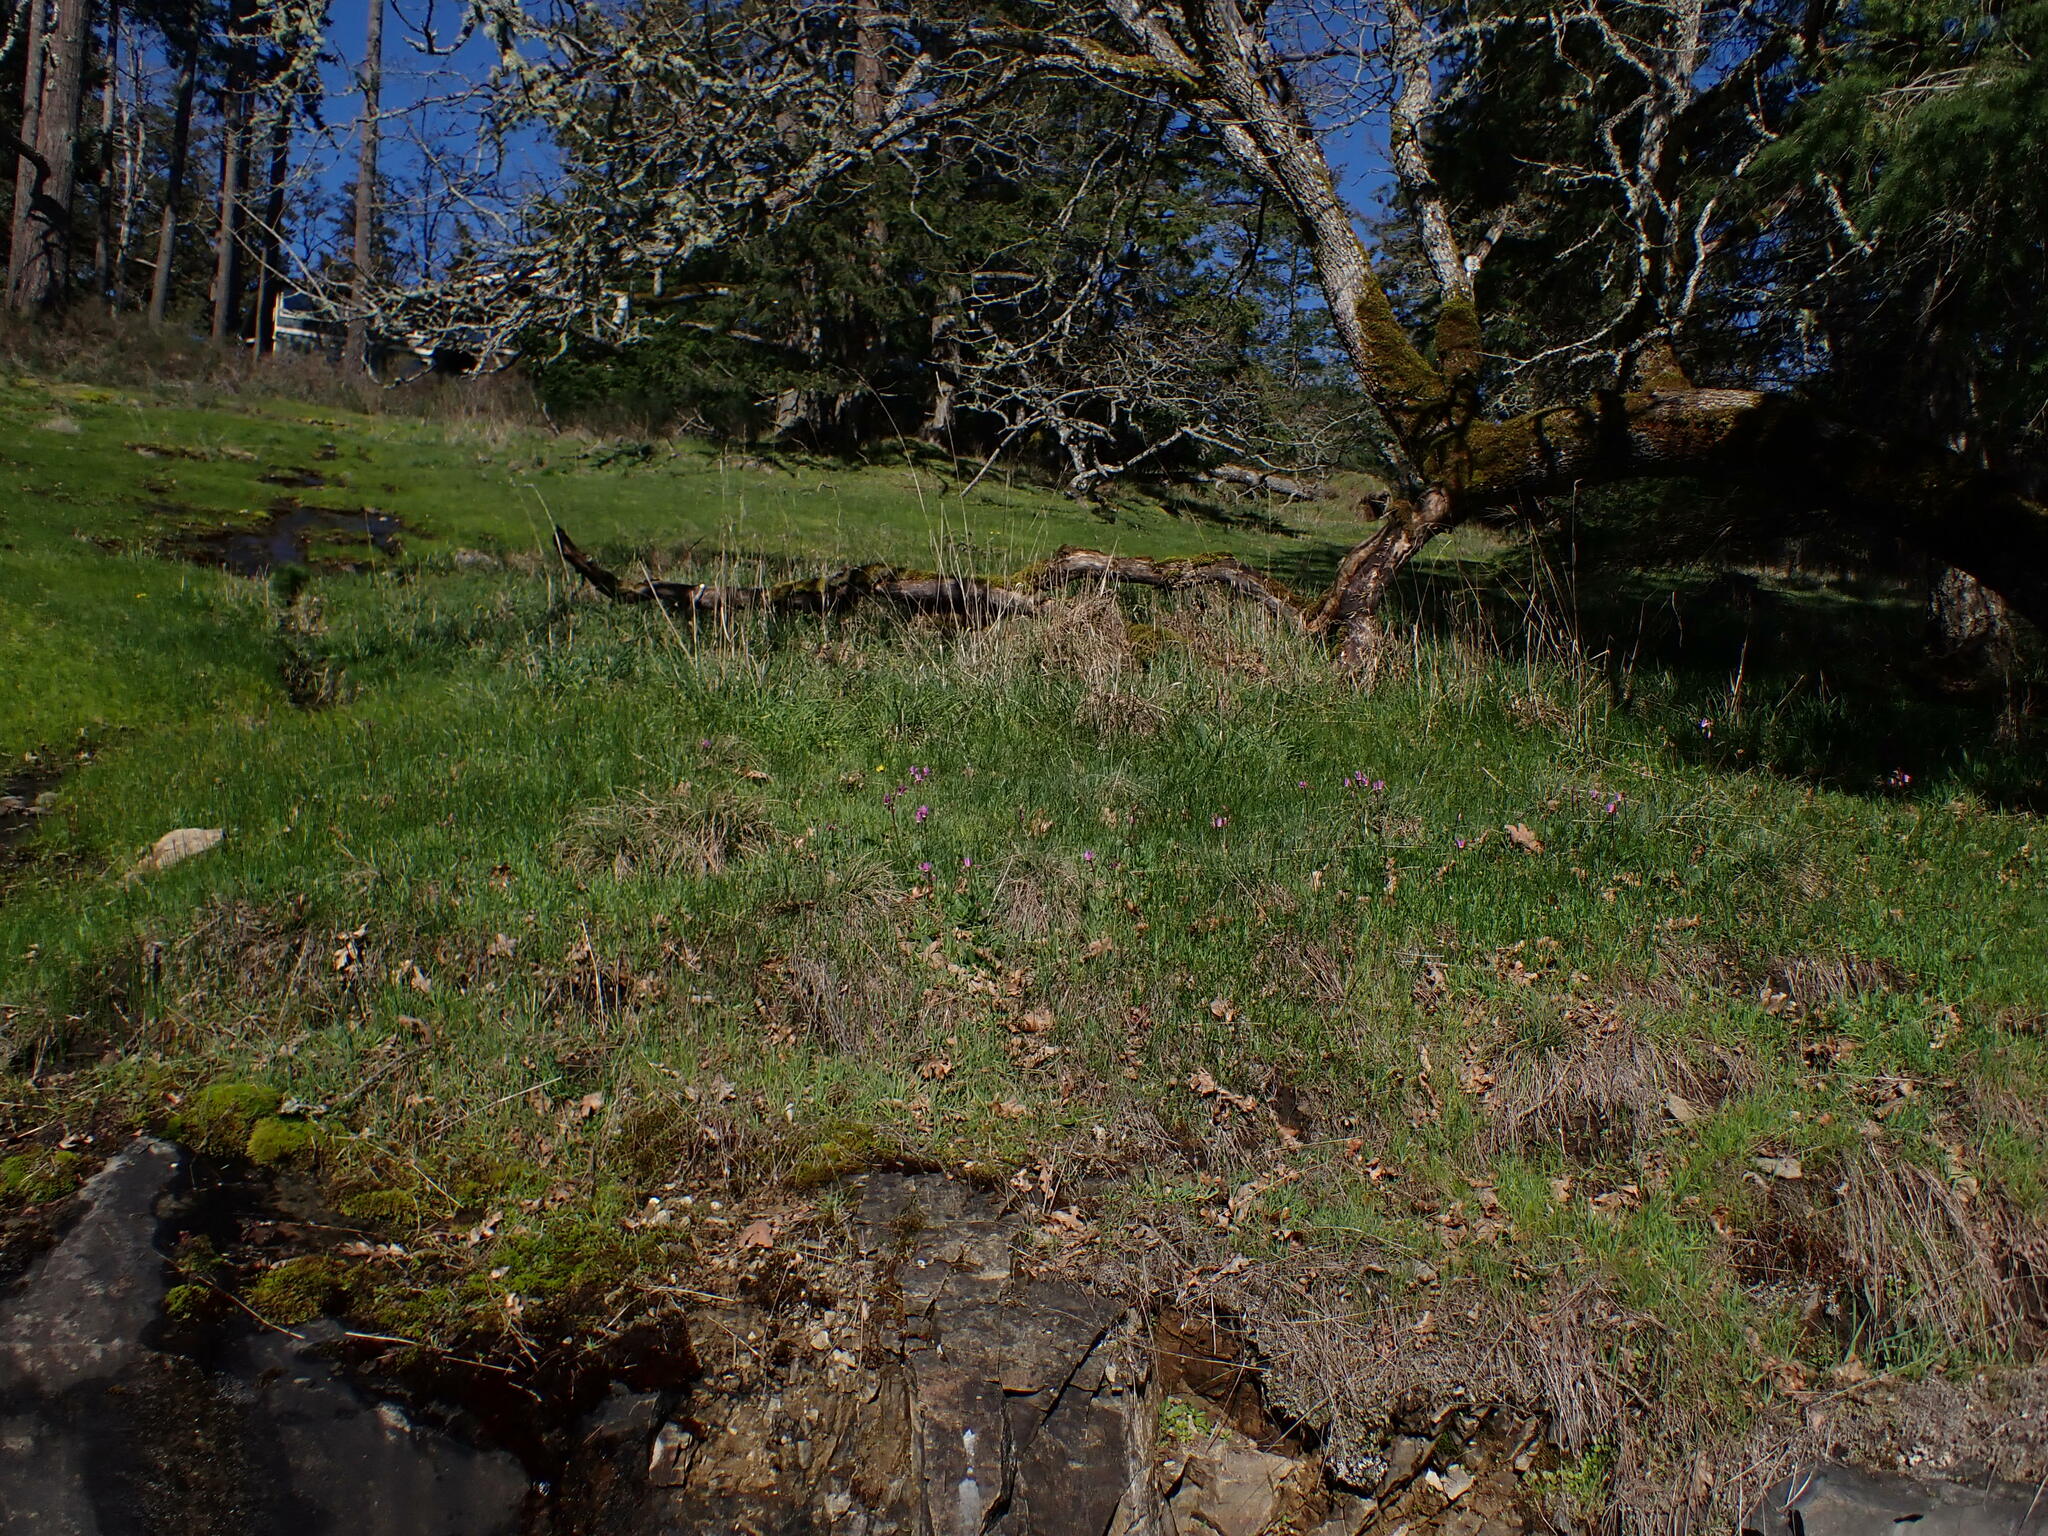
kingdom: Plantae
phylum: Tracheophyta
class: Magnoliopsida
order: Ericales
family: Primulaceae
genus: Dodecatheon
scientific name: Dodecatheon hendersonii
